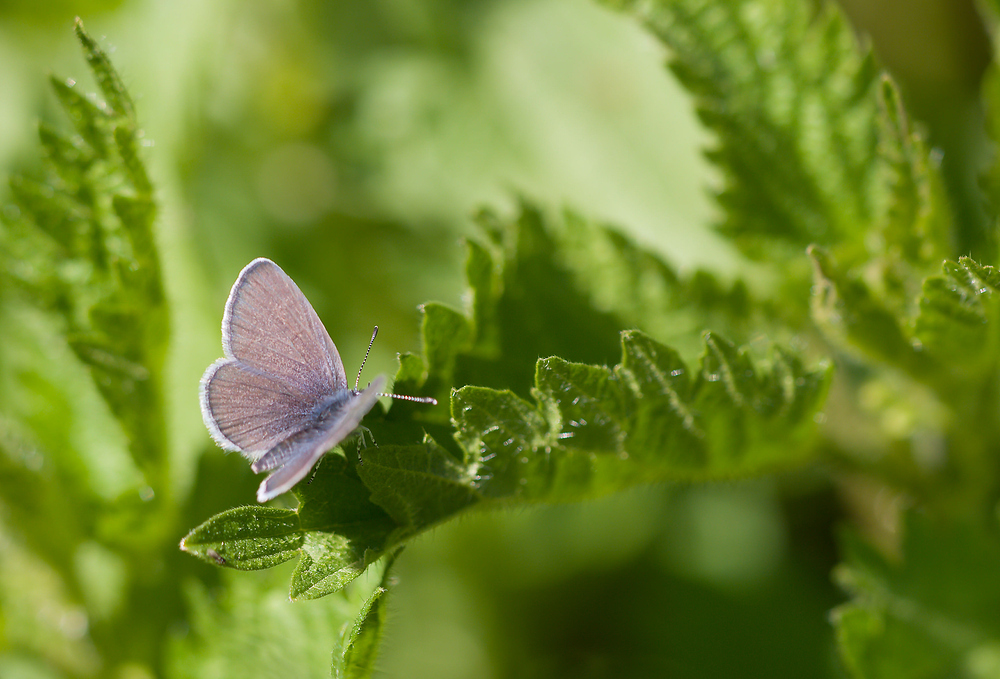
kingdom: Animalia
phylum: Arthropoda
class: Insecta
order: Lepidoptera
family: Lycaenidae
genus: Cupido
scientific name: Cupido minimus
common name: Small blue
